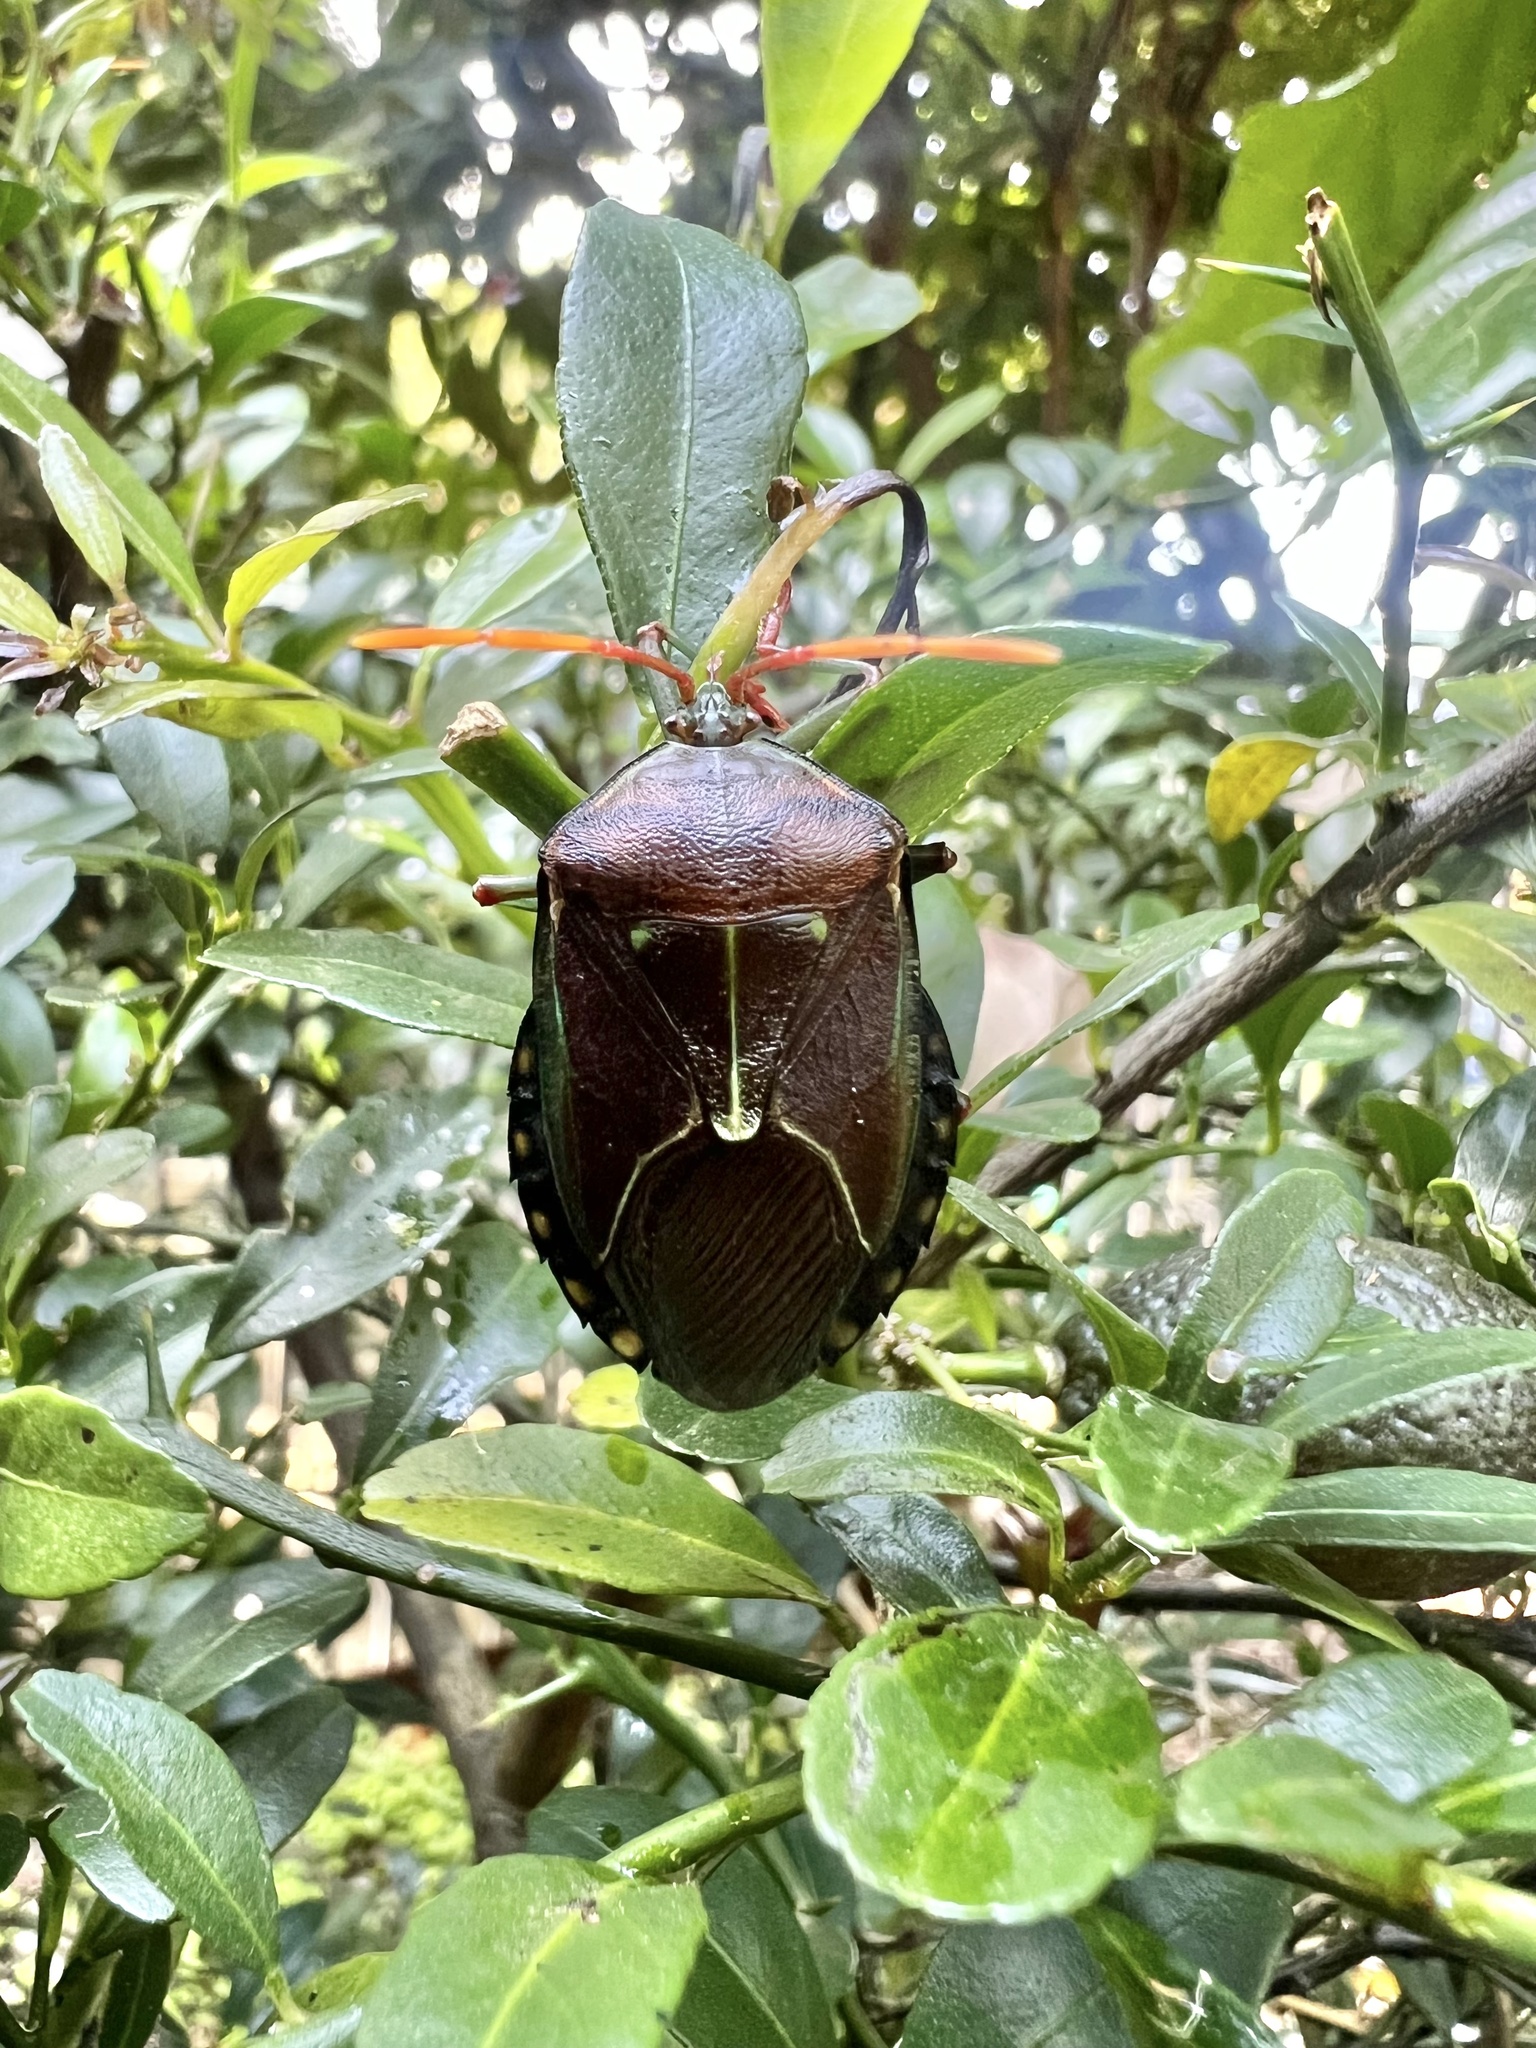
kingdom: Animalia
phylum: Arthropoda
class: Insecta
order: Hemiptera
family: Tessaratomidae
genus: Musgraveia
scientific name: Musgraveia sulciventris
